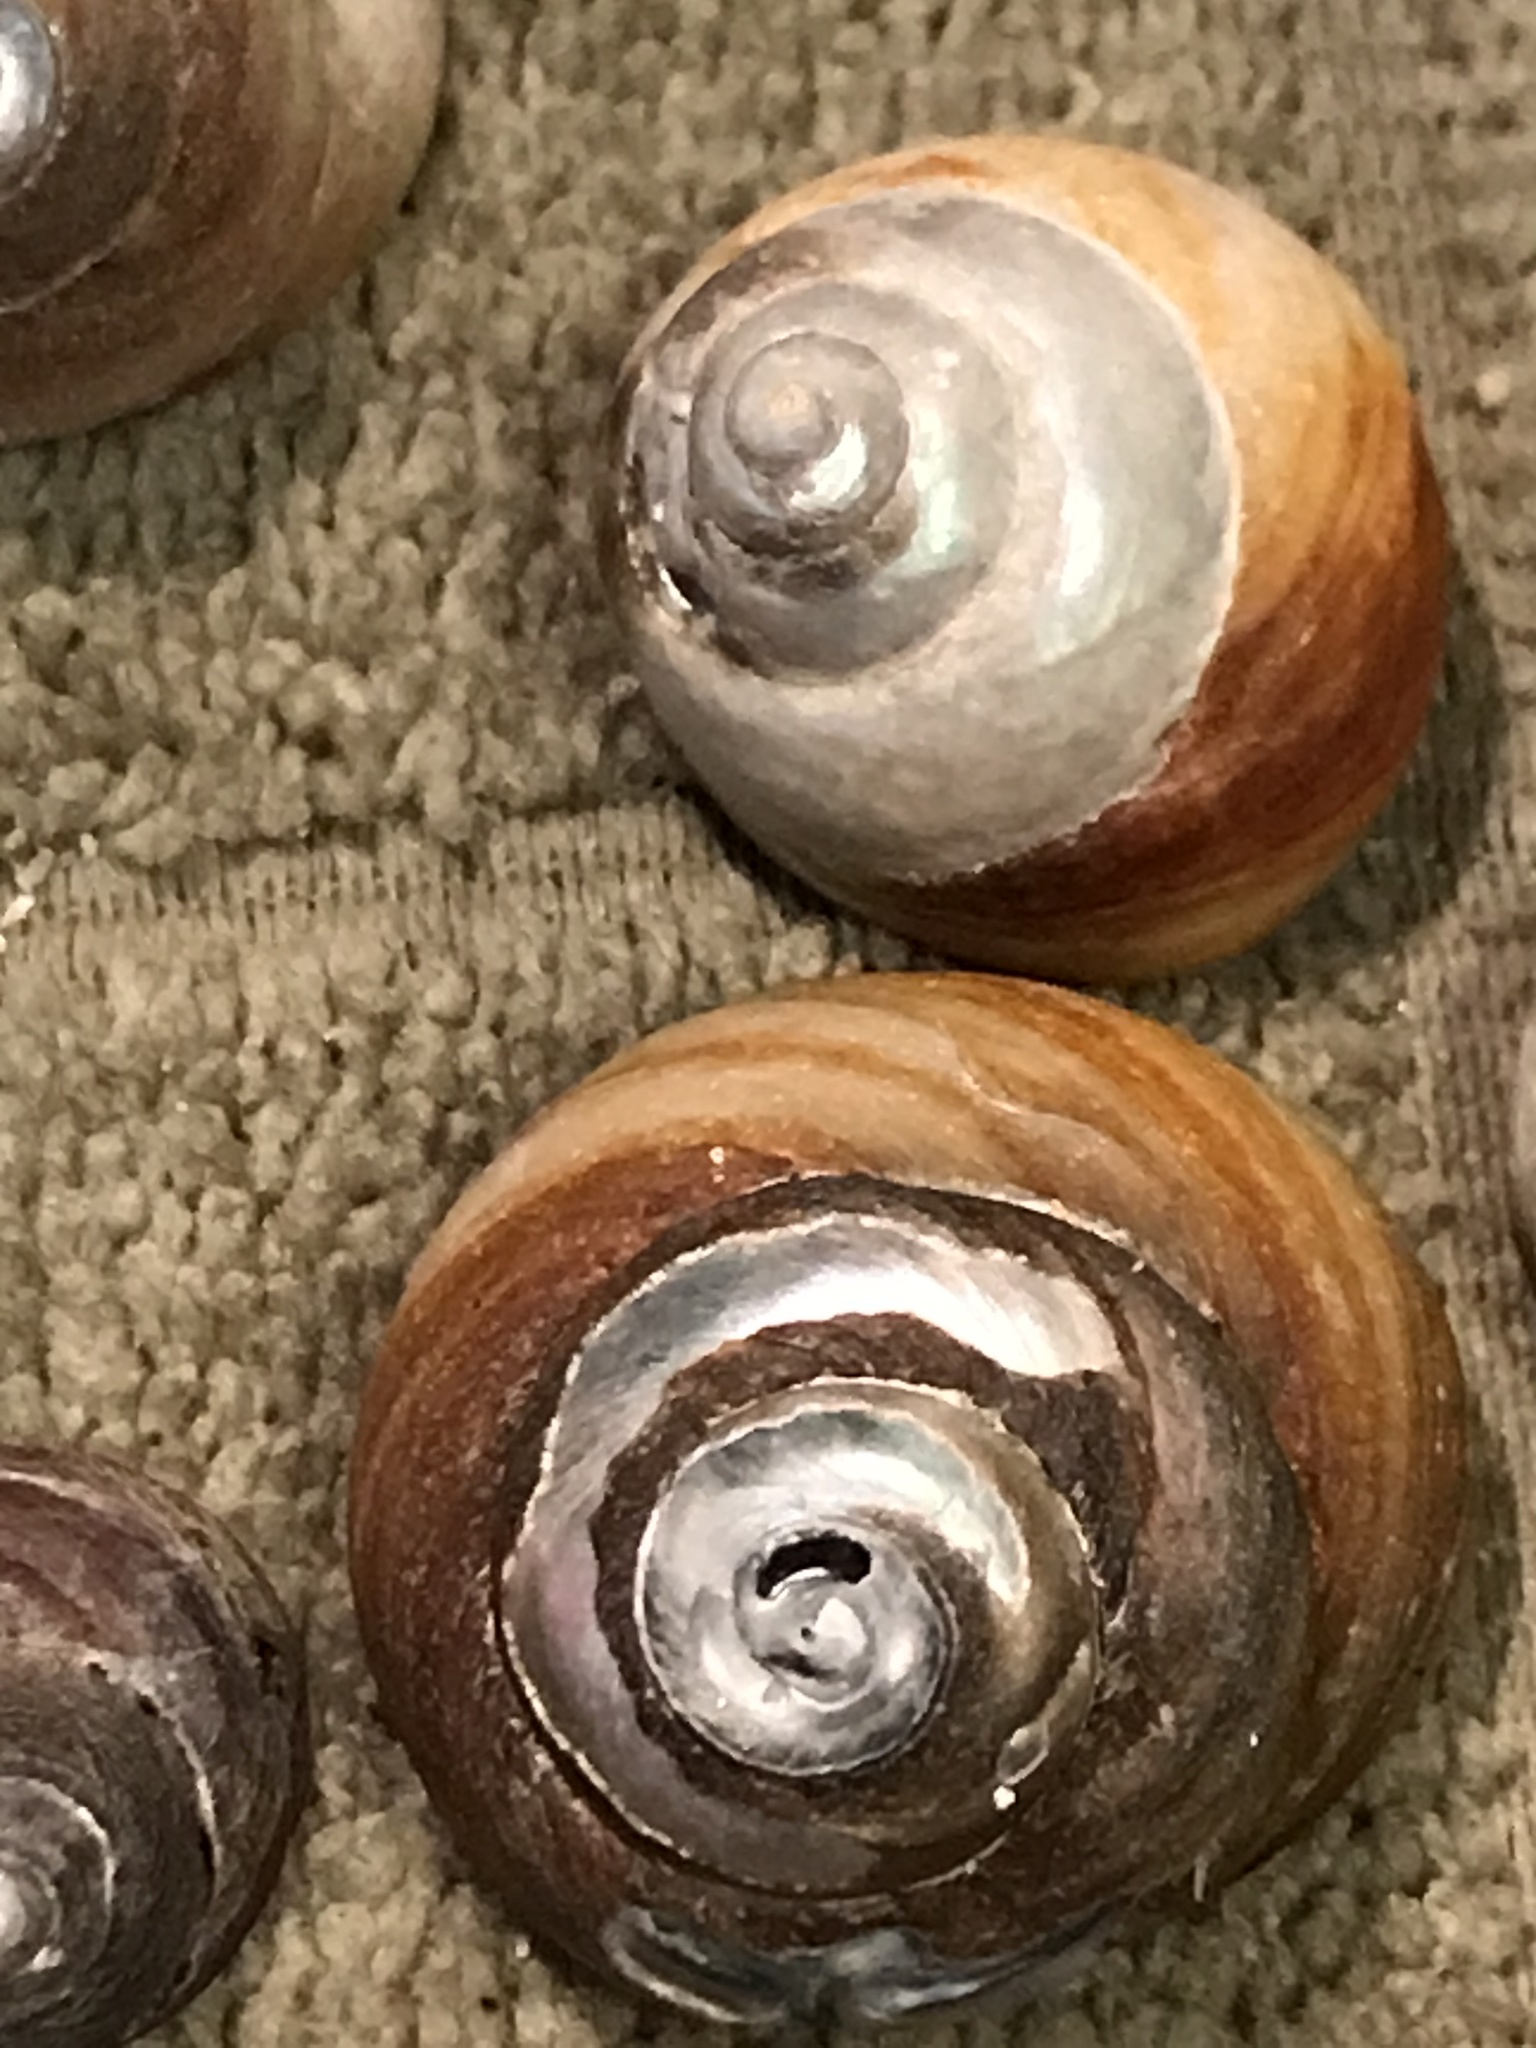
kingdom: Animalia
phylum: Mollusca
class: Gastropoda
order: Trochida
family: Tegulidae
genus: Tegula
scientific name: Tegula brunnea
